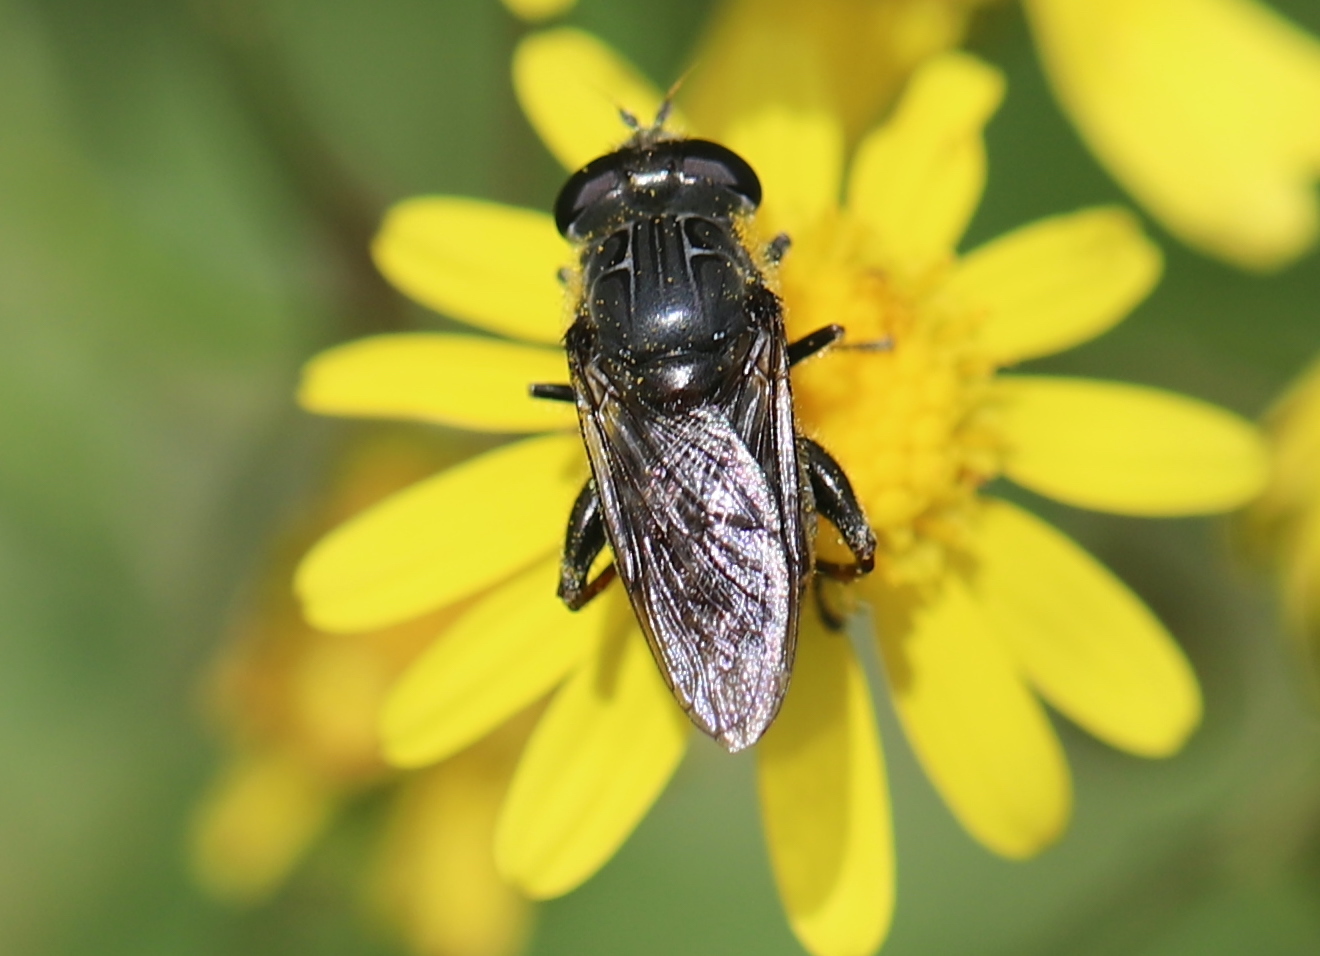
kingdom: Animalia
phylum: Arthropoda
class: Insecta
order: Diptera
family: Syrphidae
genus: Asemosyrphus
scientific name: Asemosyrphus
